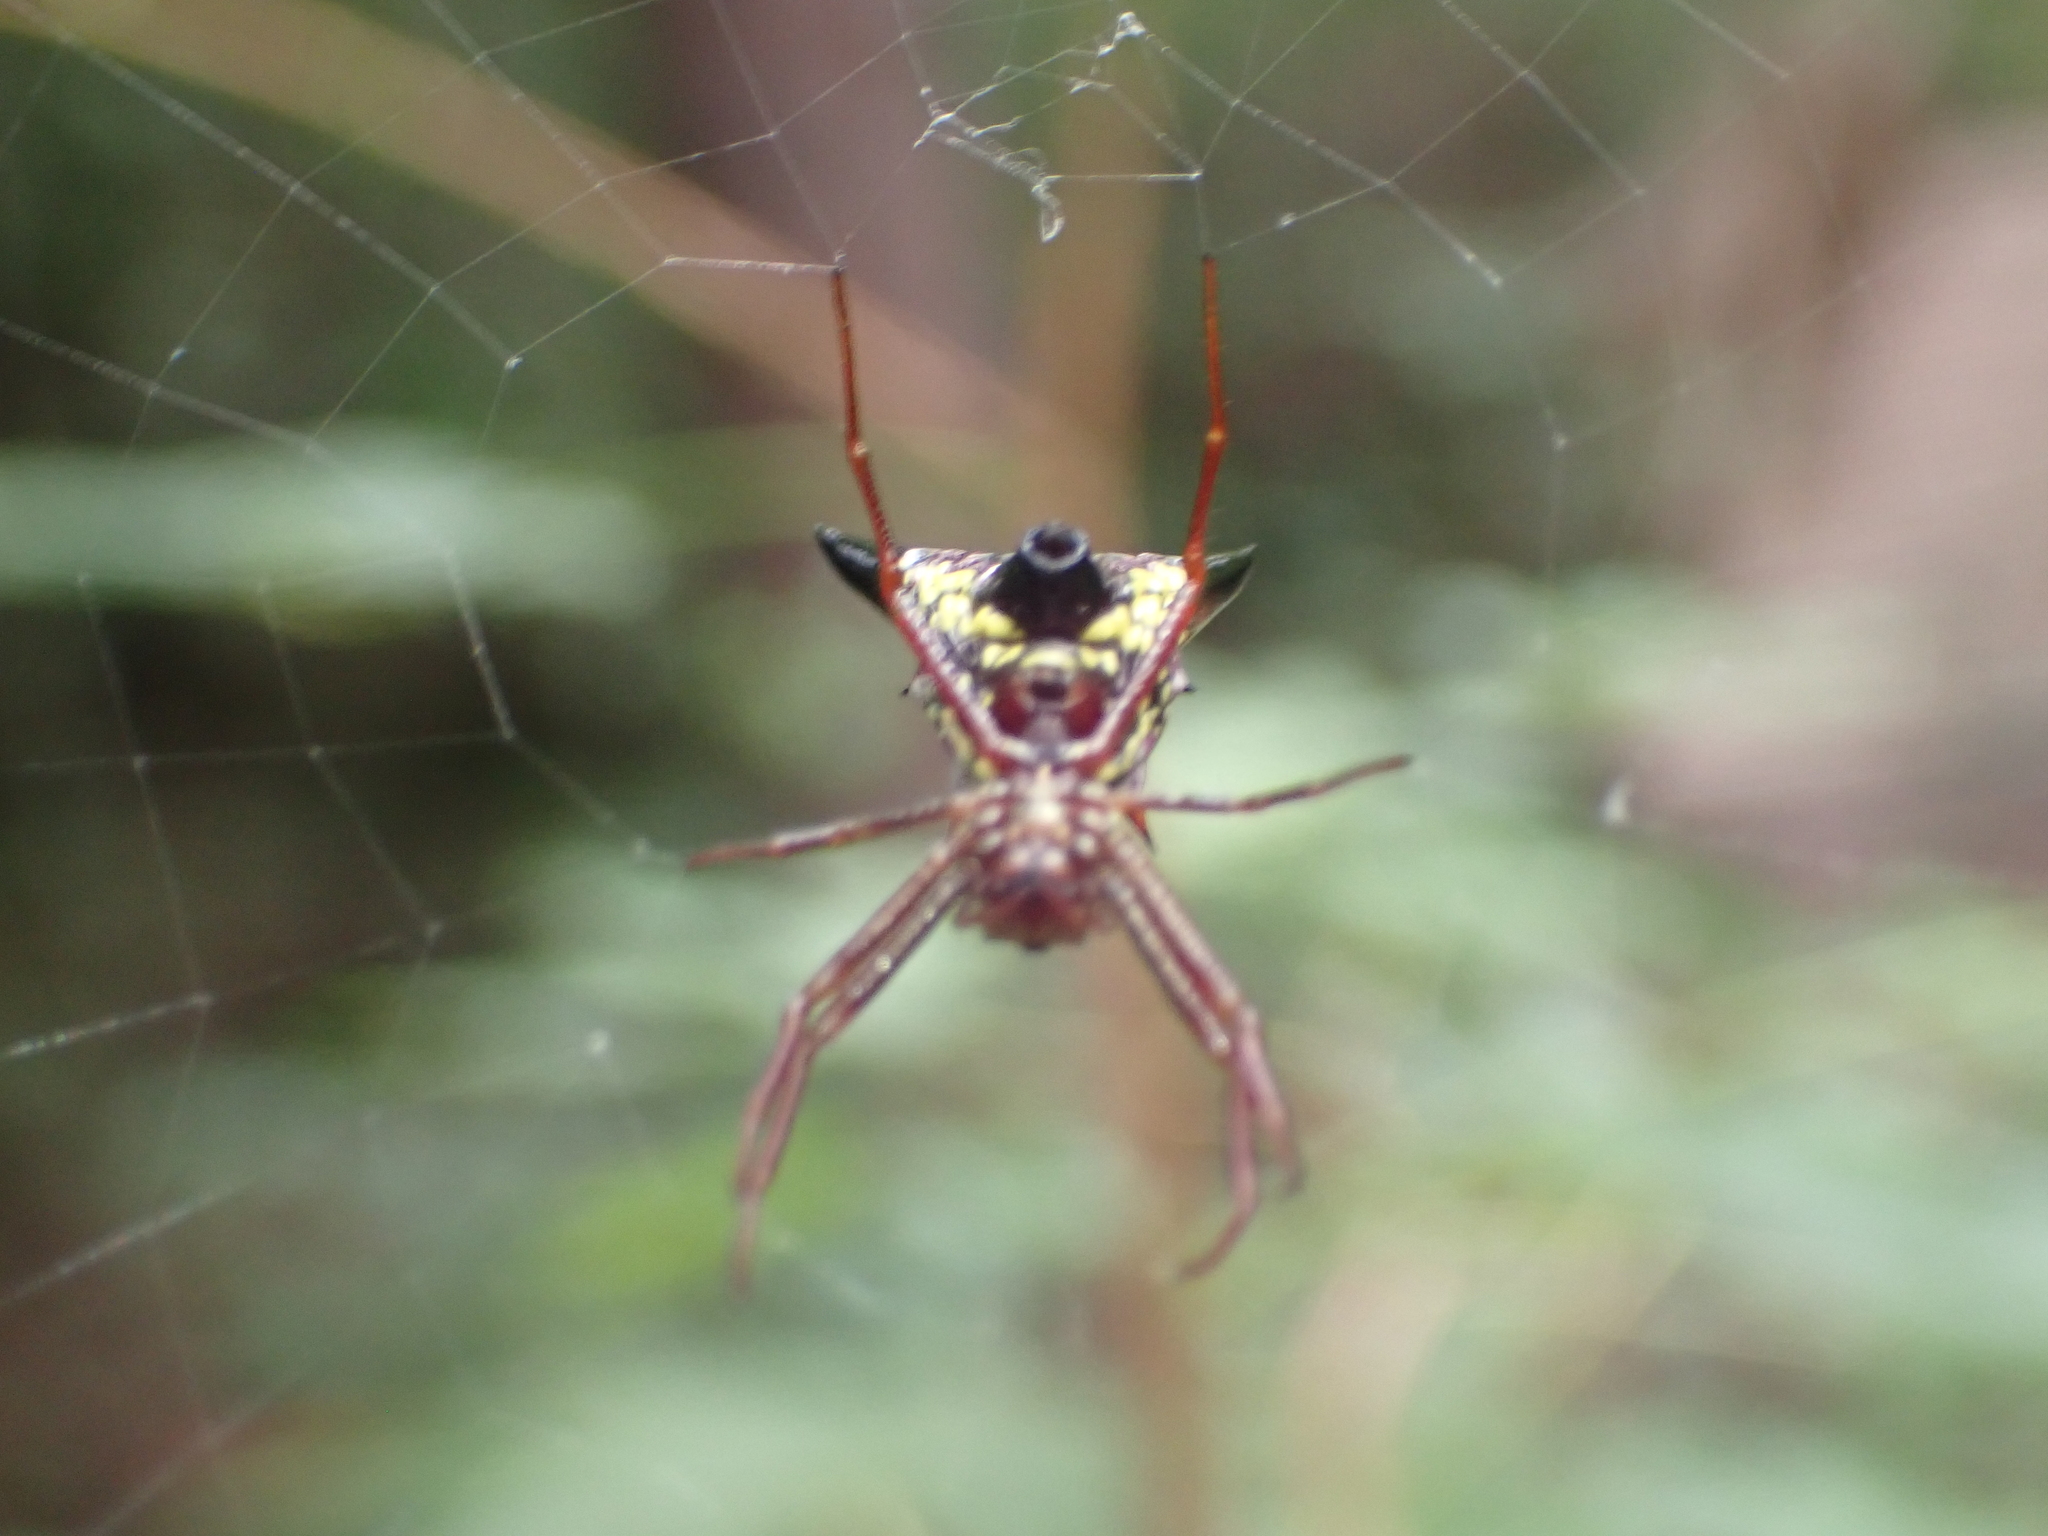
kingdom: Animalia
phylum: Arthropoda
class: Arachnida
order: Araneae
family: Araneidae
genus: Micrathena
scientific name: Micrathena sagittata
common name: Orb weavers
